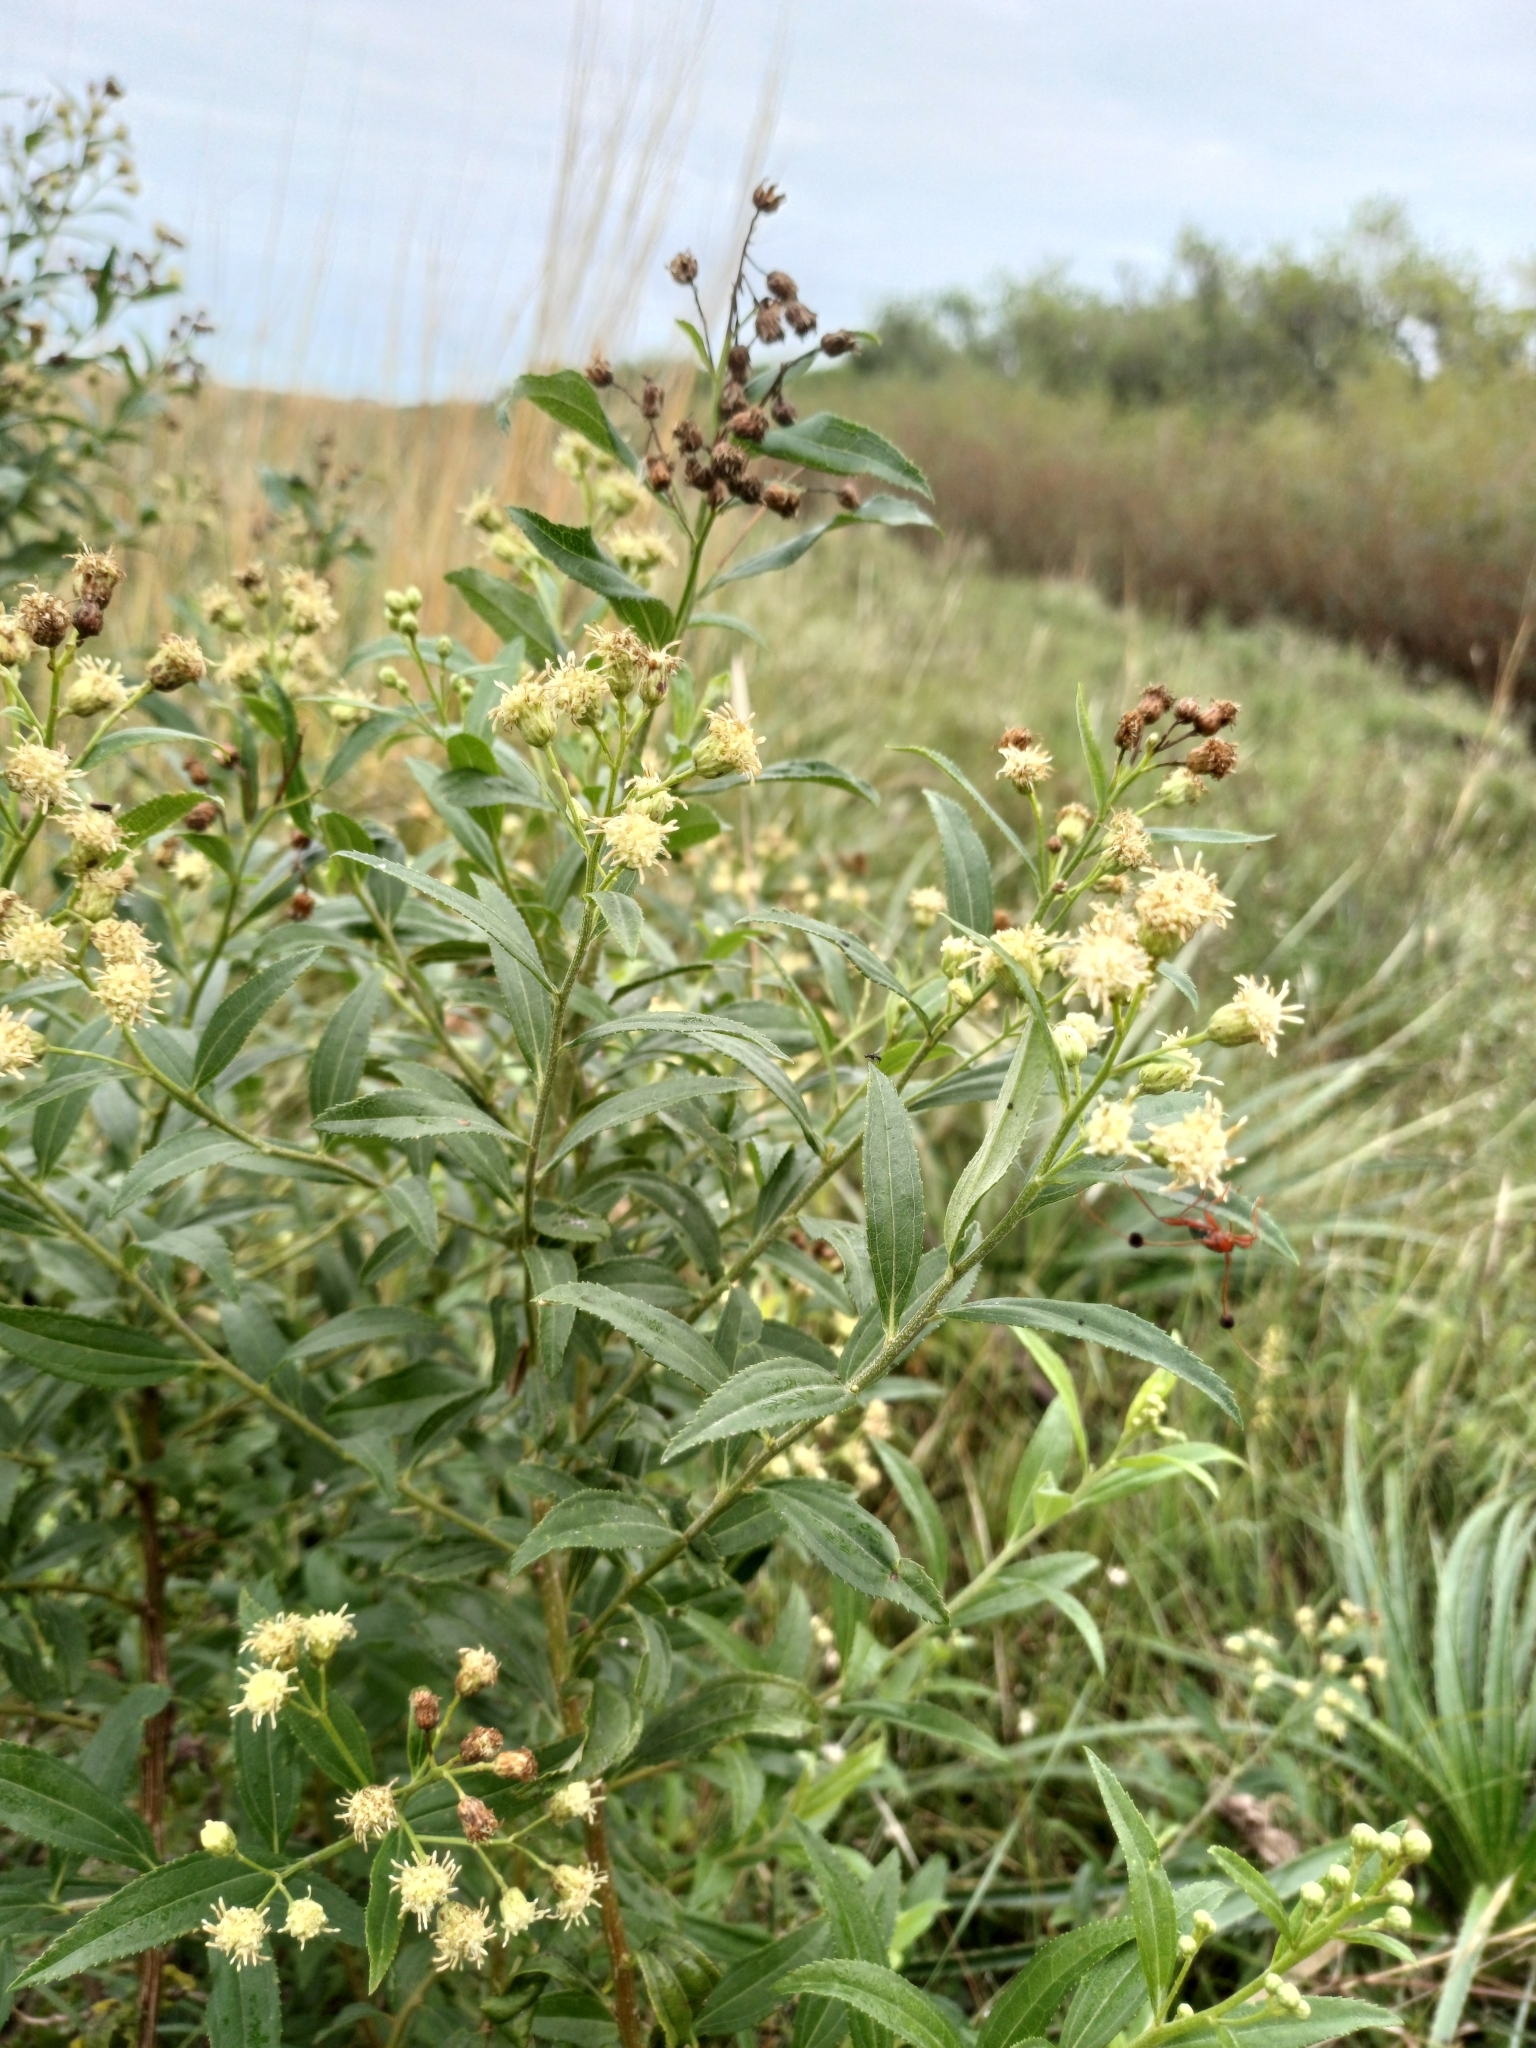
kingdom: Plantae
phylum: Tracheophyta
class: Magnoliopsida
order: Asterales
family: Asteraceae
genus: Baccharis
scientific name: Baccharis punctulata
